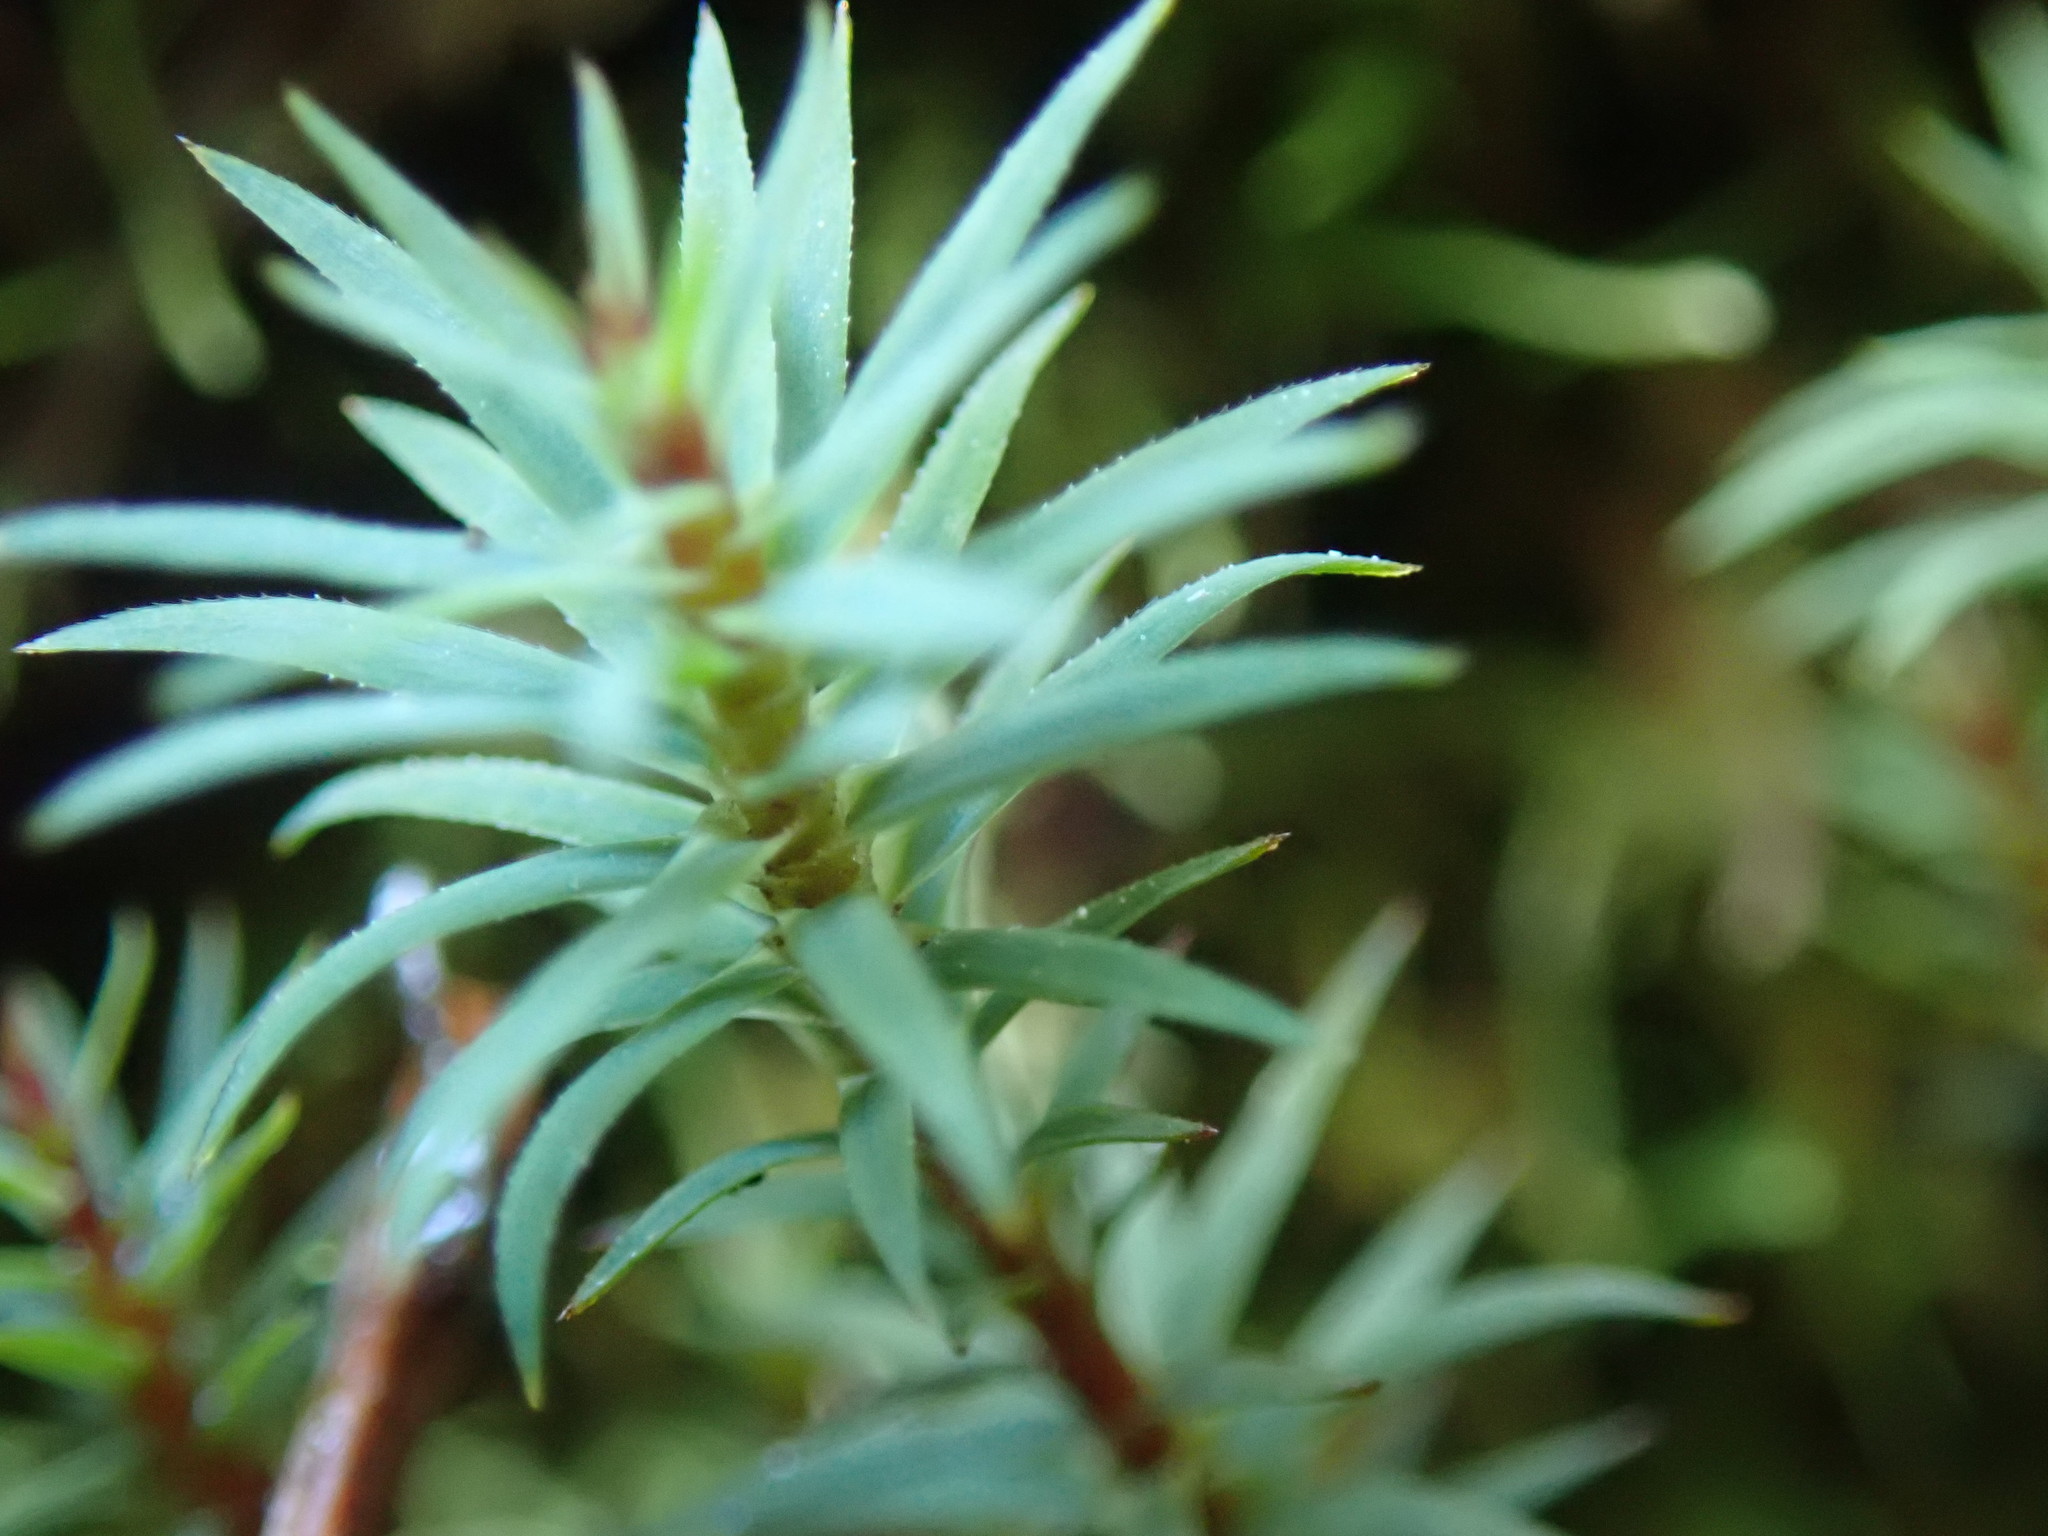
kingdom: Plantae
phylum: Bryophyta
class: Polytrichopsida
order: Polytrichales
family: Polytrichaceae
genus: Pogonatum
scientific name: Pogonatum urnigerum
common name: Urn hair moss
